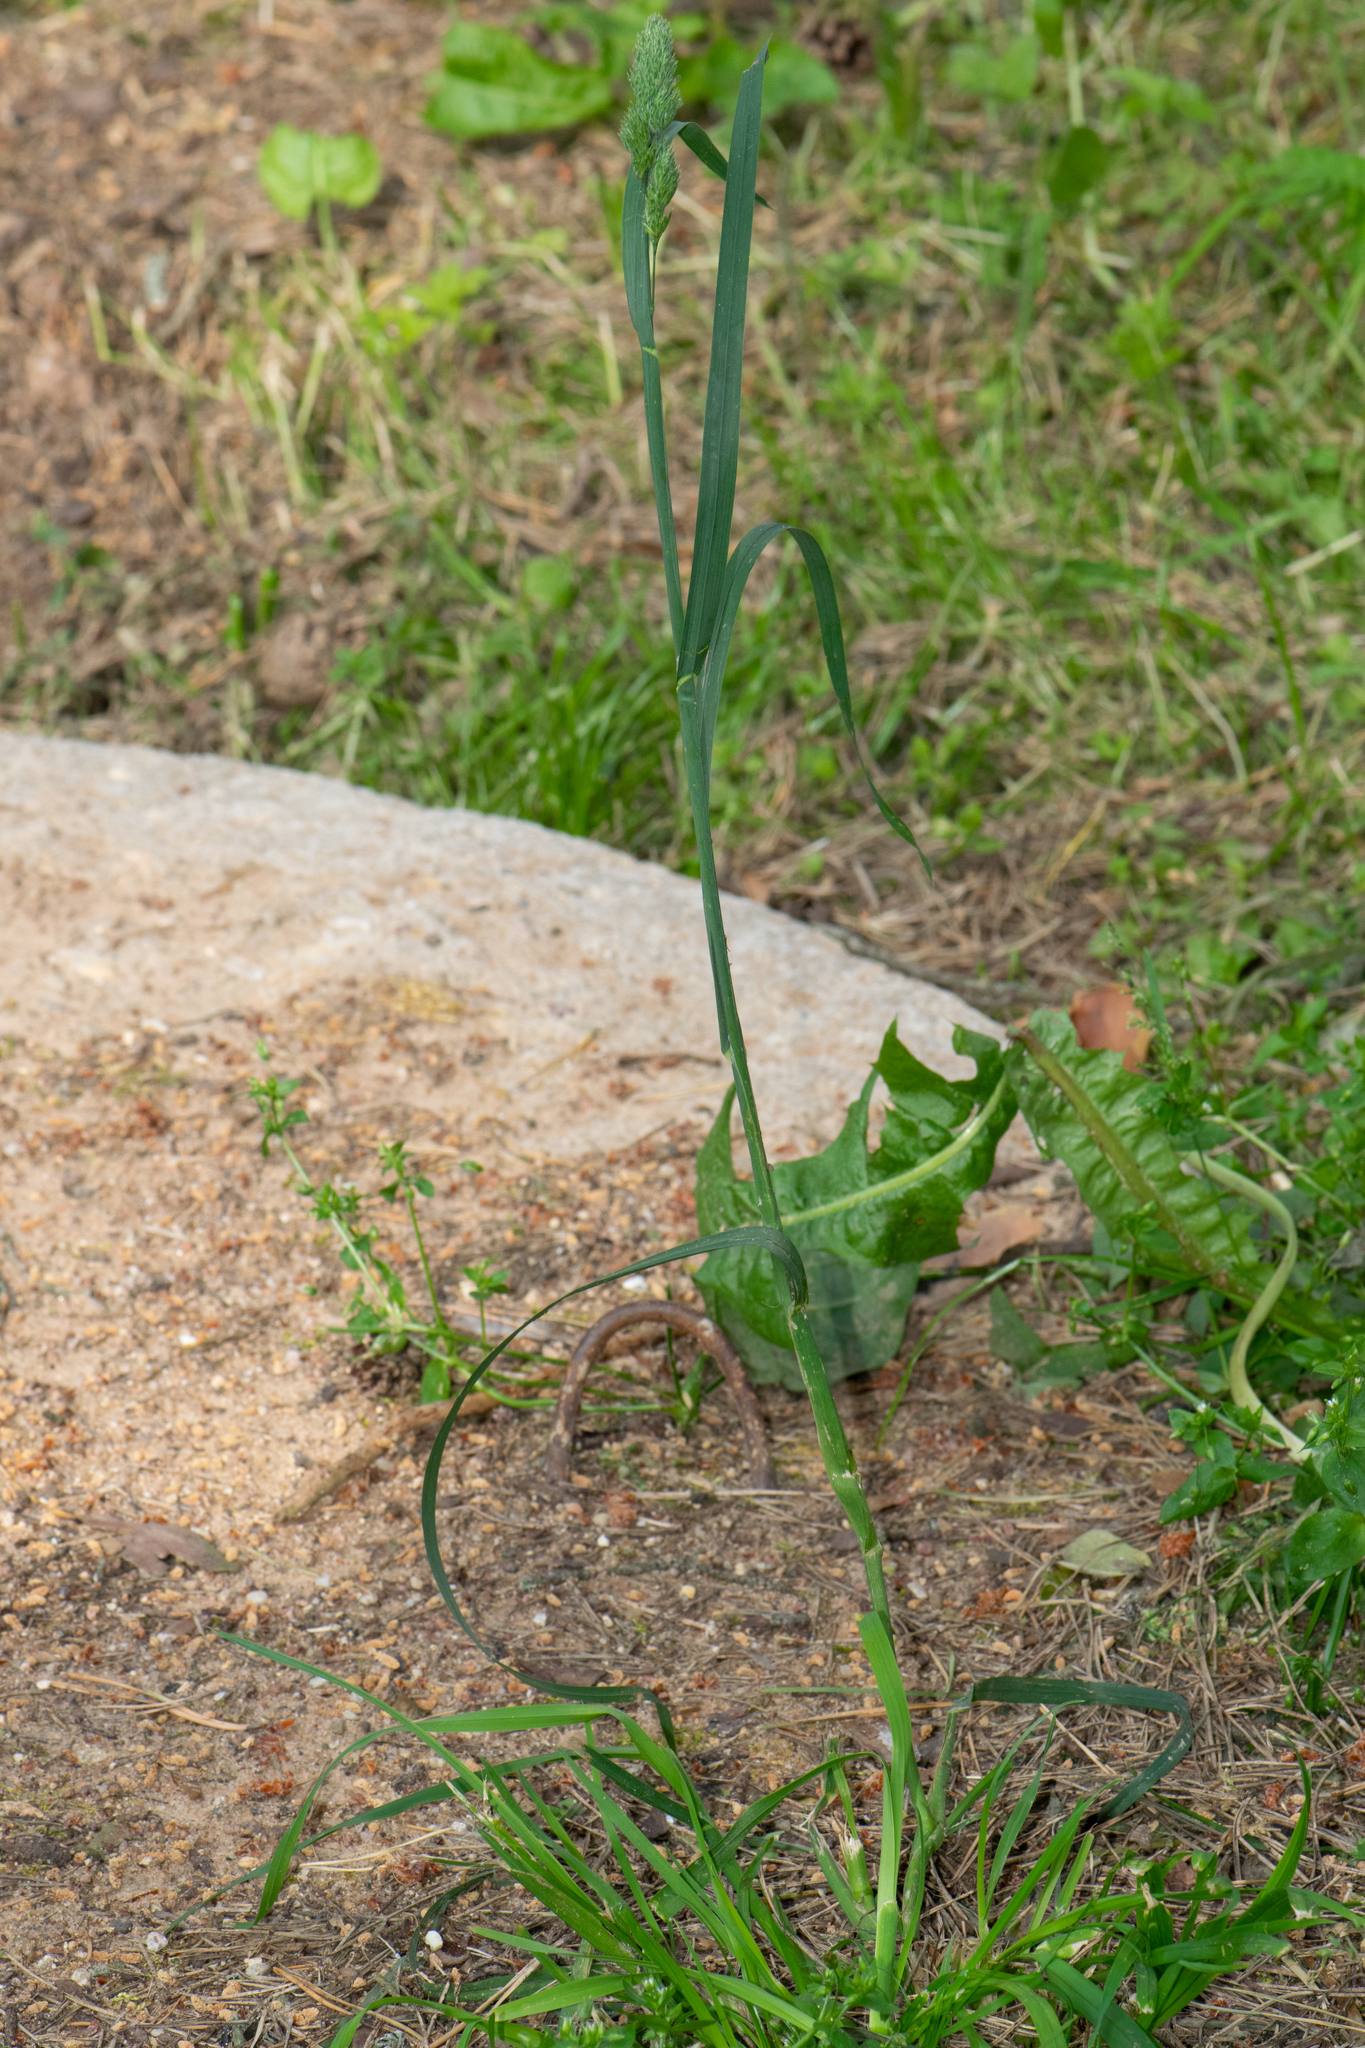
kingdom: Plantae
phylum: Tracheophyta
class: Liliopsida
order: Poales
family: Poaceae
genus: Dactylis
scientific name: Dactylis glomerata
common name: Orchardgrass
